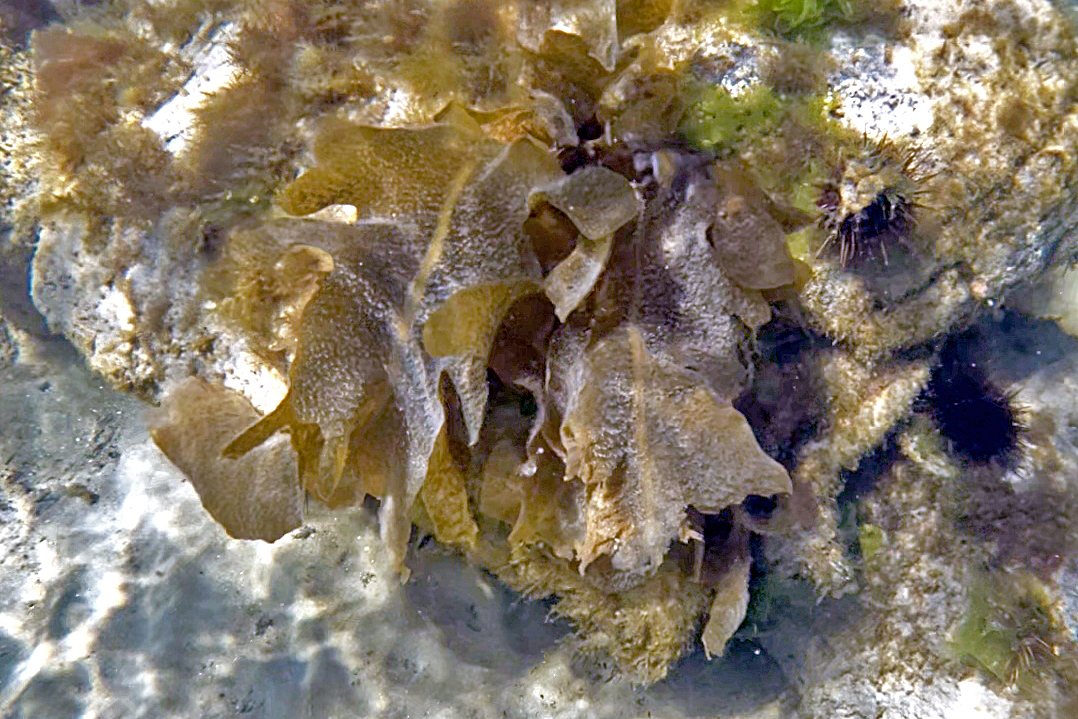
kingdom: Chromista
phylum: Ochrophyta
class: Phaeophyceae
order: Laminariales
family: Alariaceae
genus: Undaria
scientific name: Undaria pinnatifida
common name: Asian kelp
